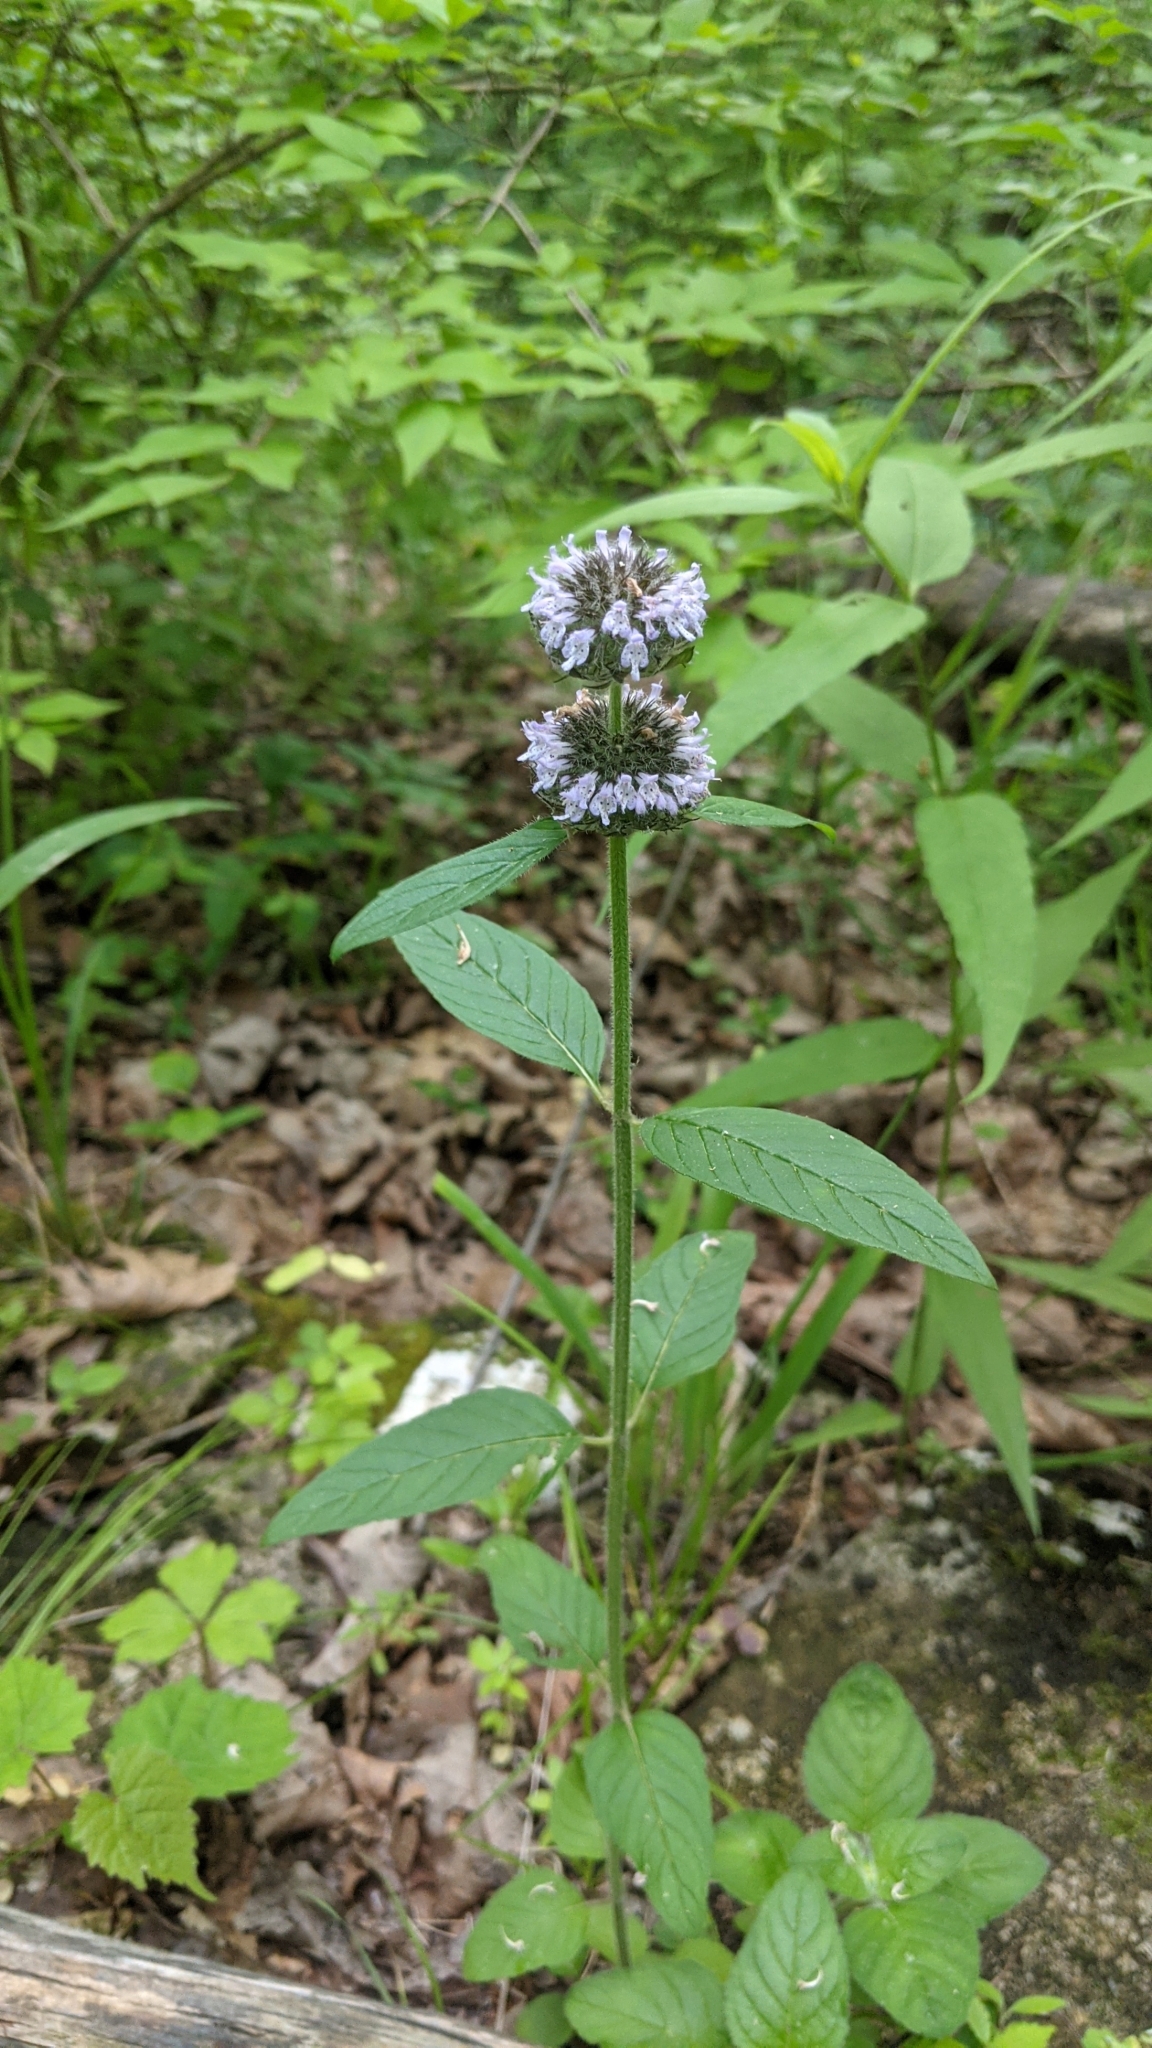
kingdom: Plantae
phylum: Tracheophyta
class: Magnoliopsida
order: Lamiales
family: Lamiaceae
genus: Blephilia
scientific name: Blephilia hirsuta
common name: Hairy blephilia
